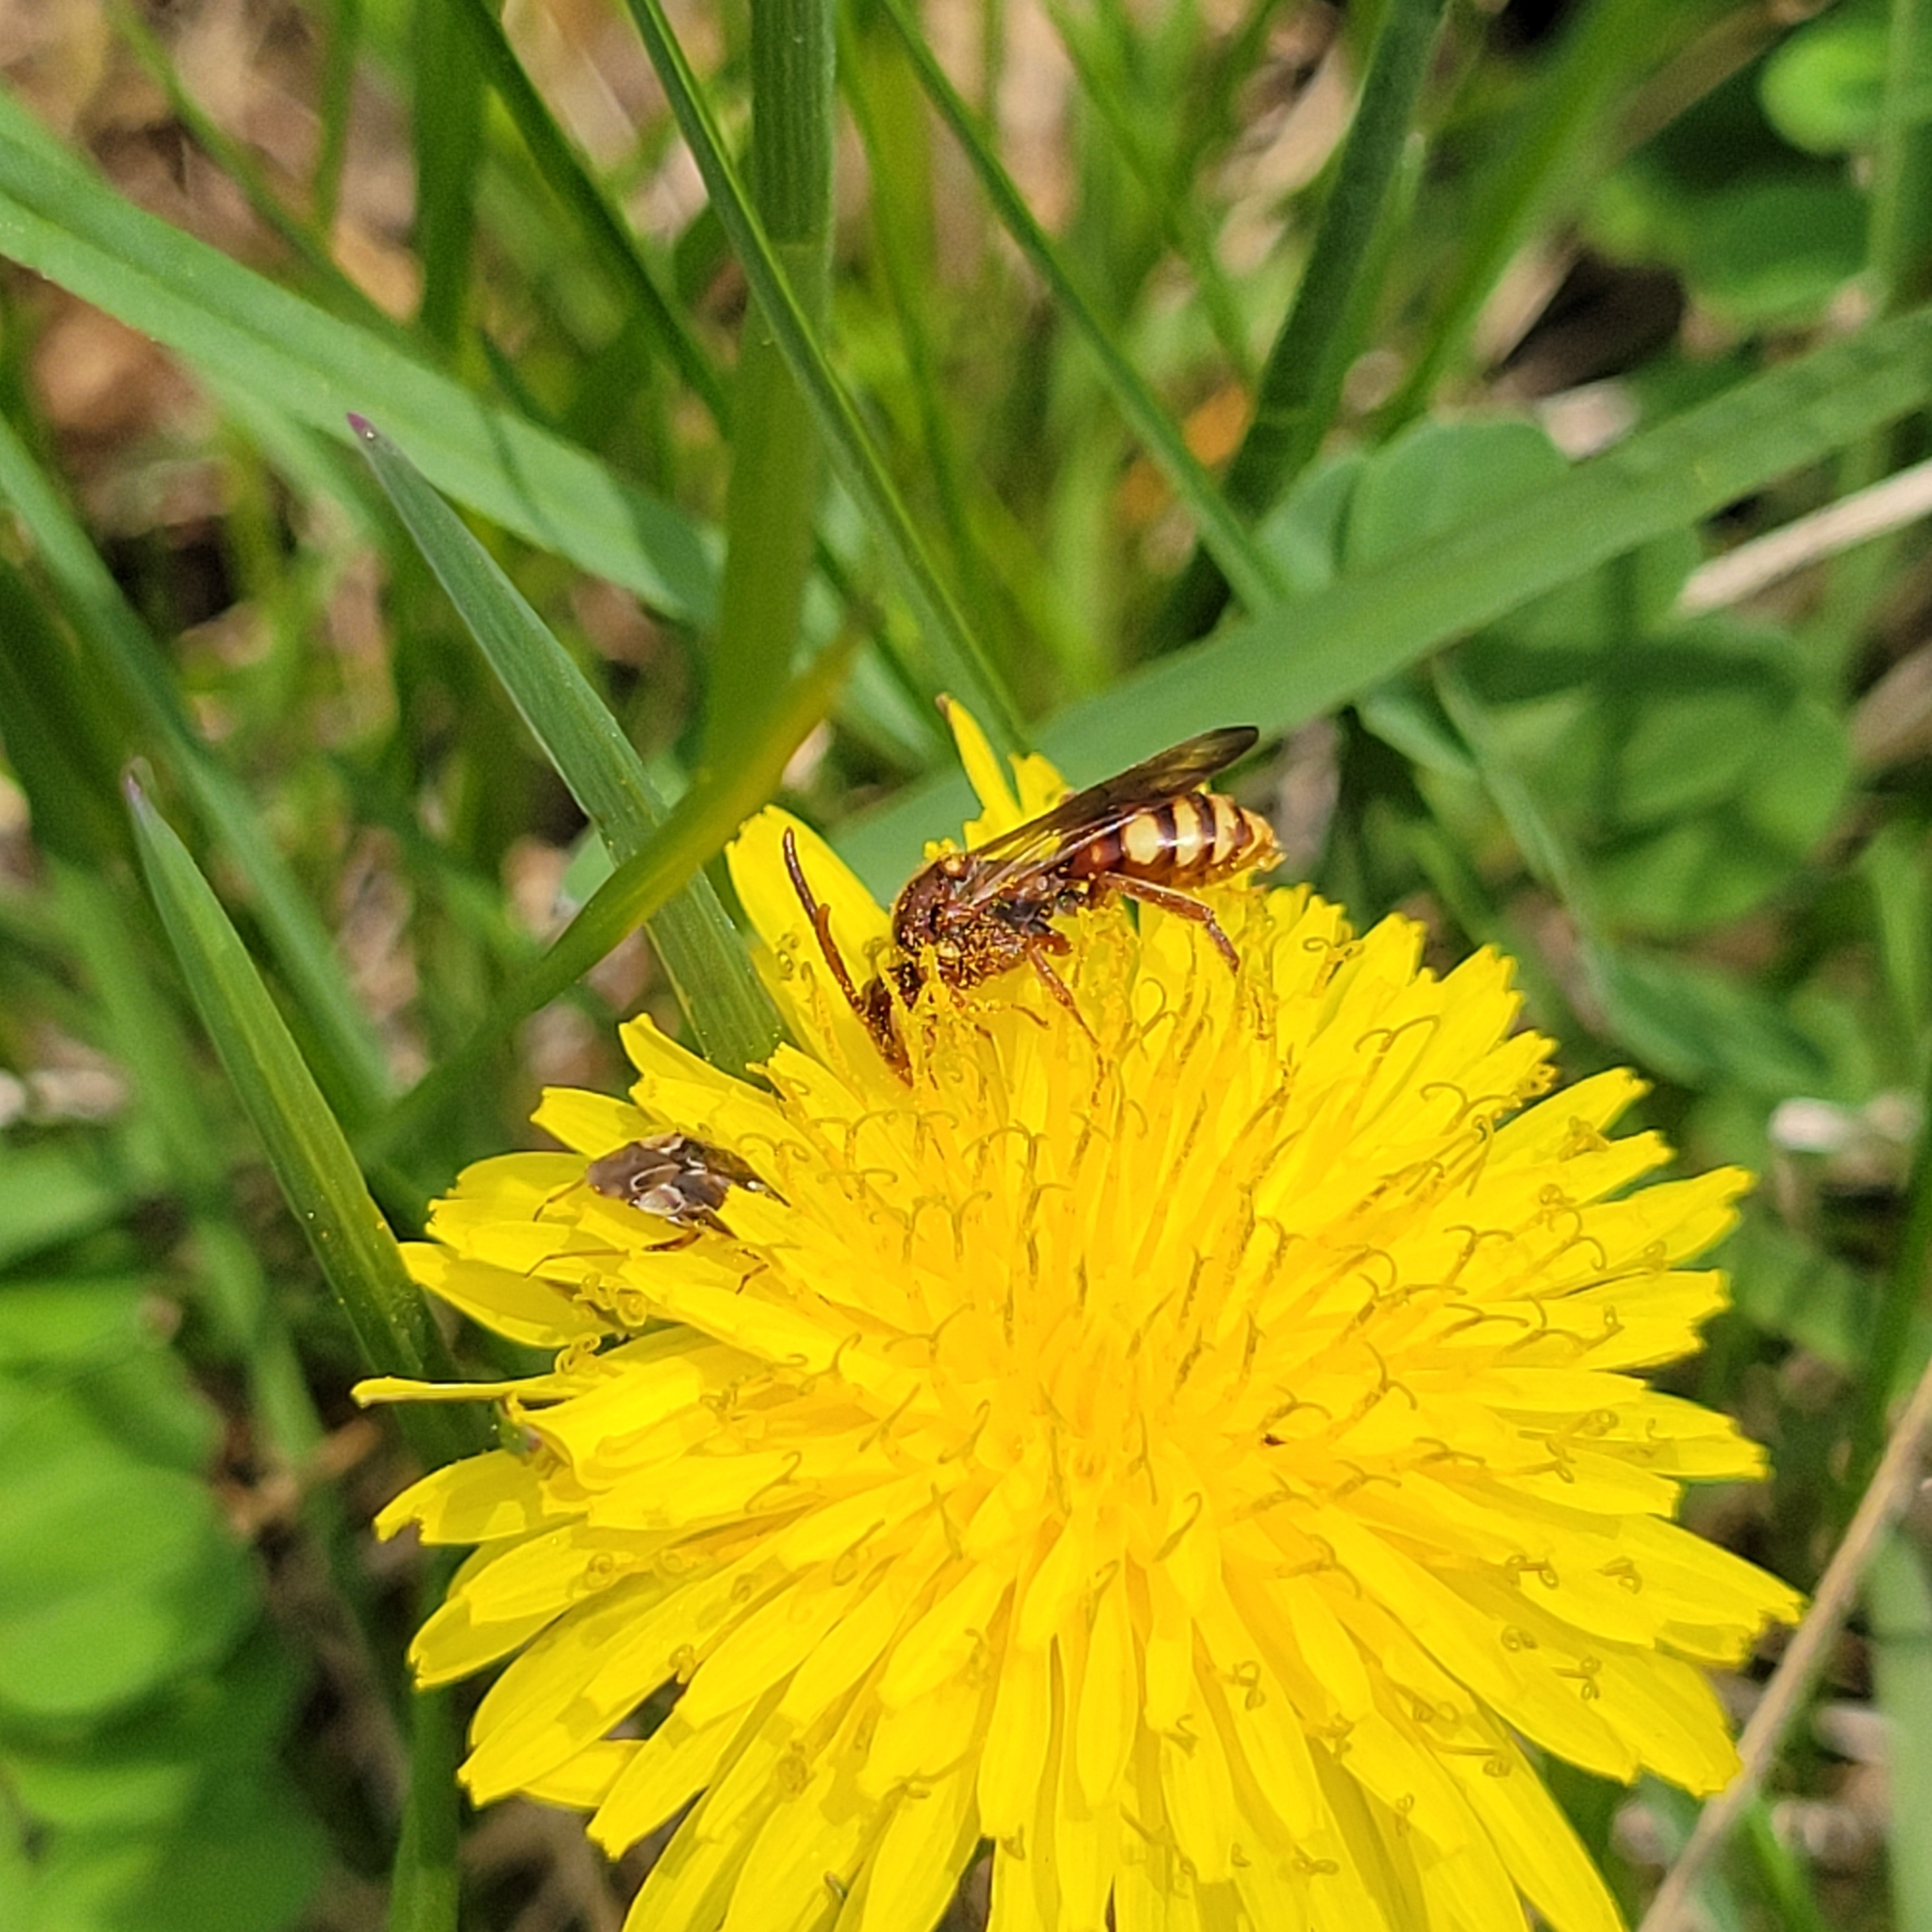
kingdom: Animalia
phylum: Arthropoda
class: Insecta
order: Hymenoptera
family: Apidae
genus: Nomada
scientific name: Nomada imbricata
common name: Imbricate cuckoo nomad bee
